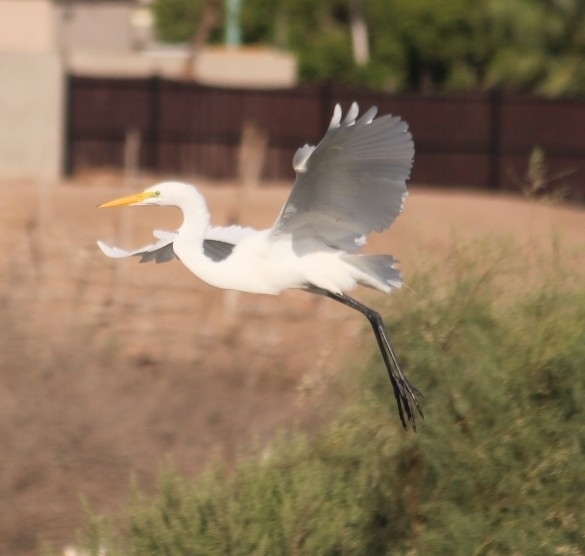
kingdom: Animalia
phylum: Chordata
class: Aves
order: Pelecaniformes
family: Ardeidae
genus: Ardea
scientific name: Ardea alba
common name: Great egret
